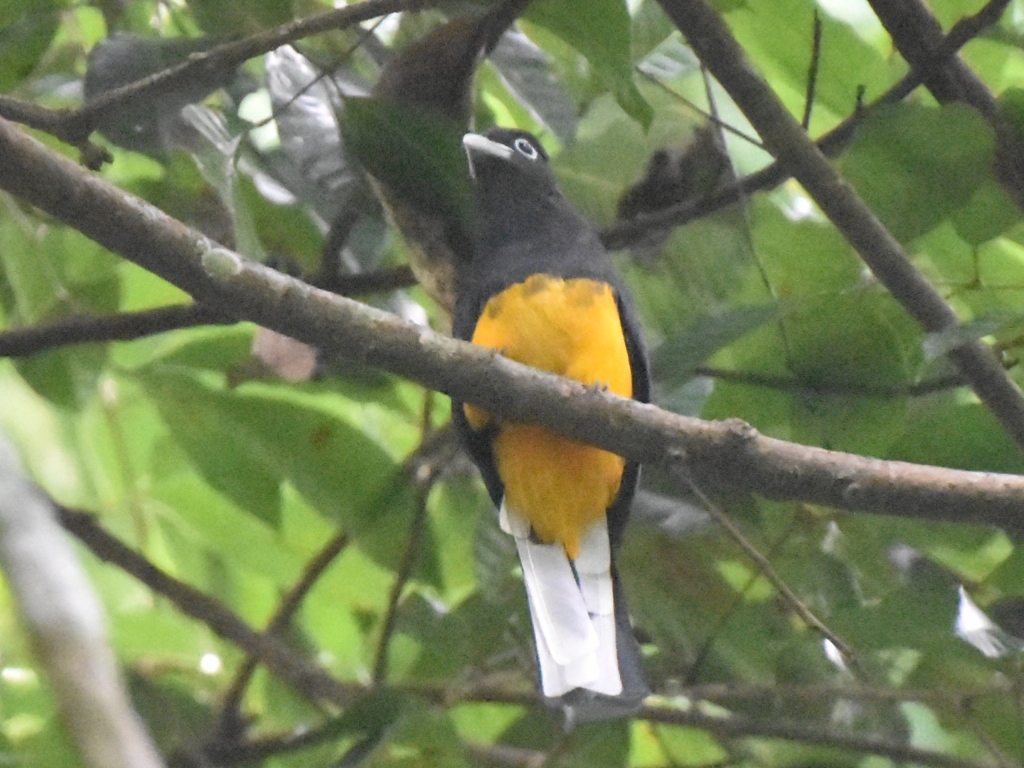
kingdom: Animalia
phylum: Chordata
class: Aves
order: Trogoniformes
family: Trogonidae
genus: Trogon
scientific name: Trogon chionurus
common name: White-tailed trogon
